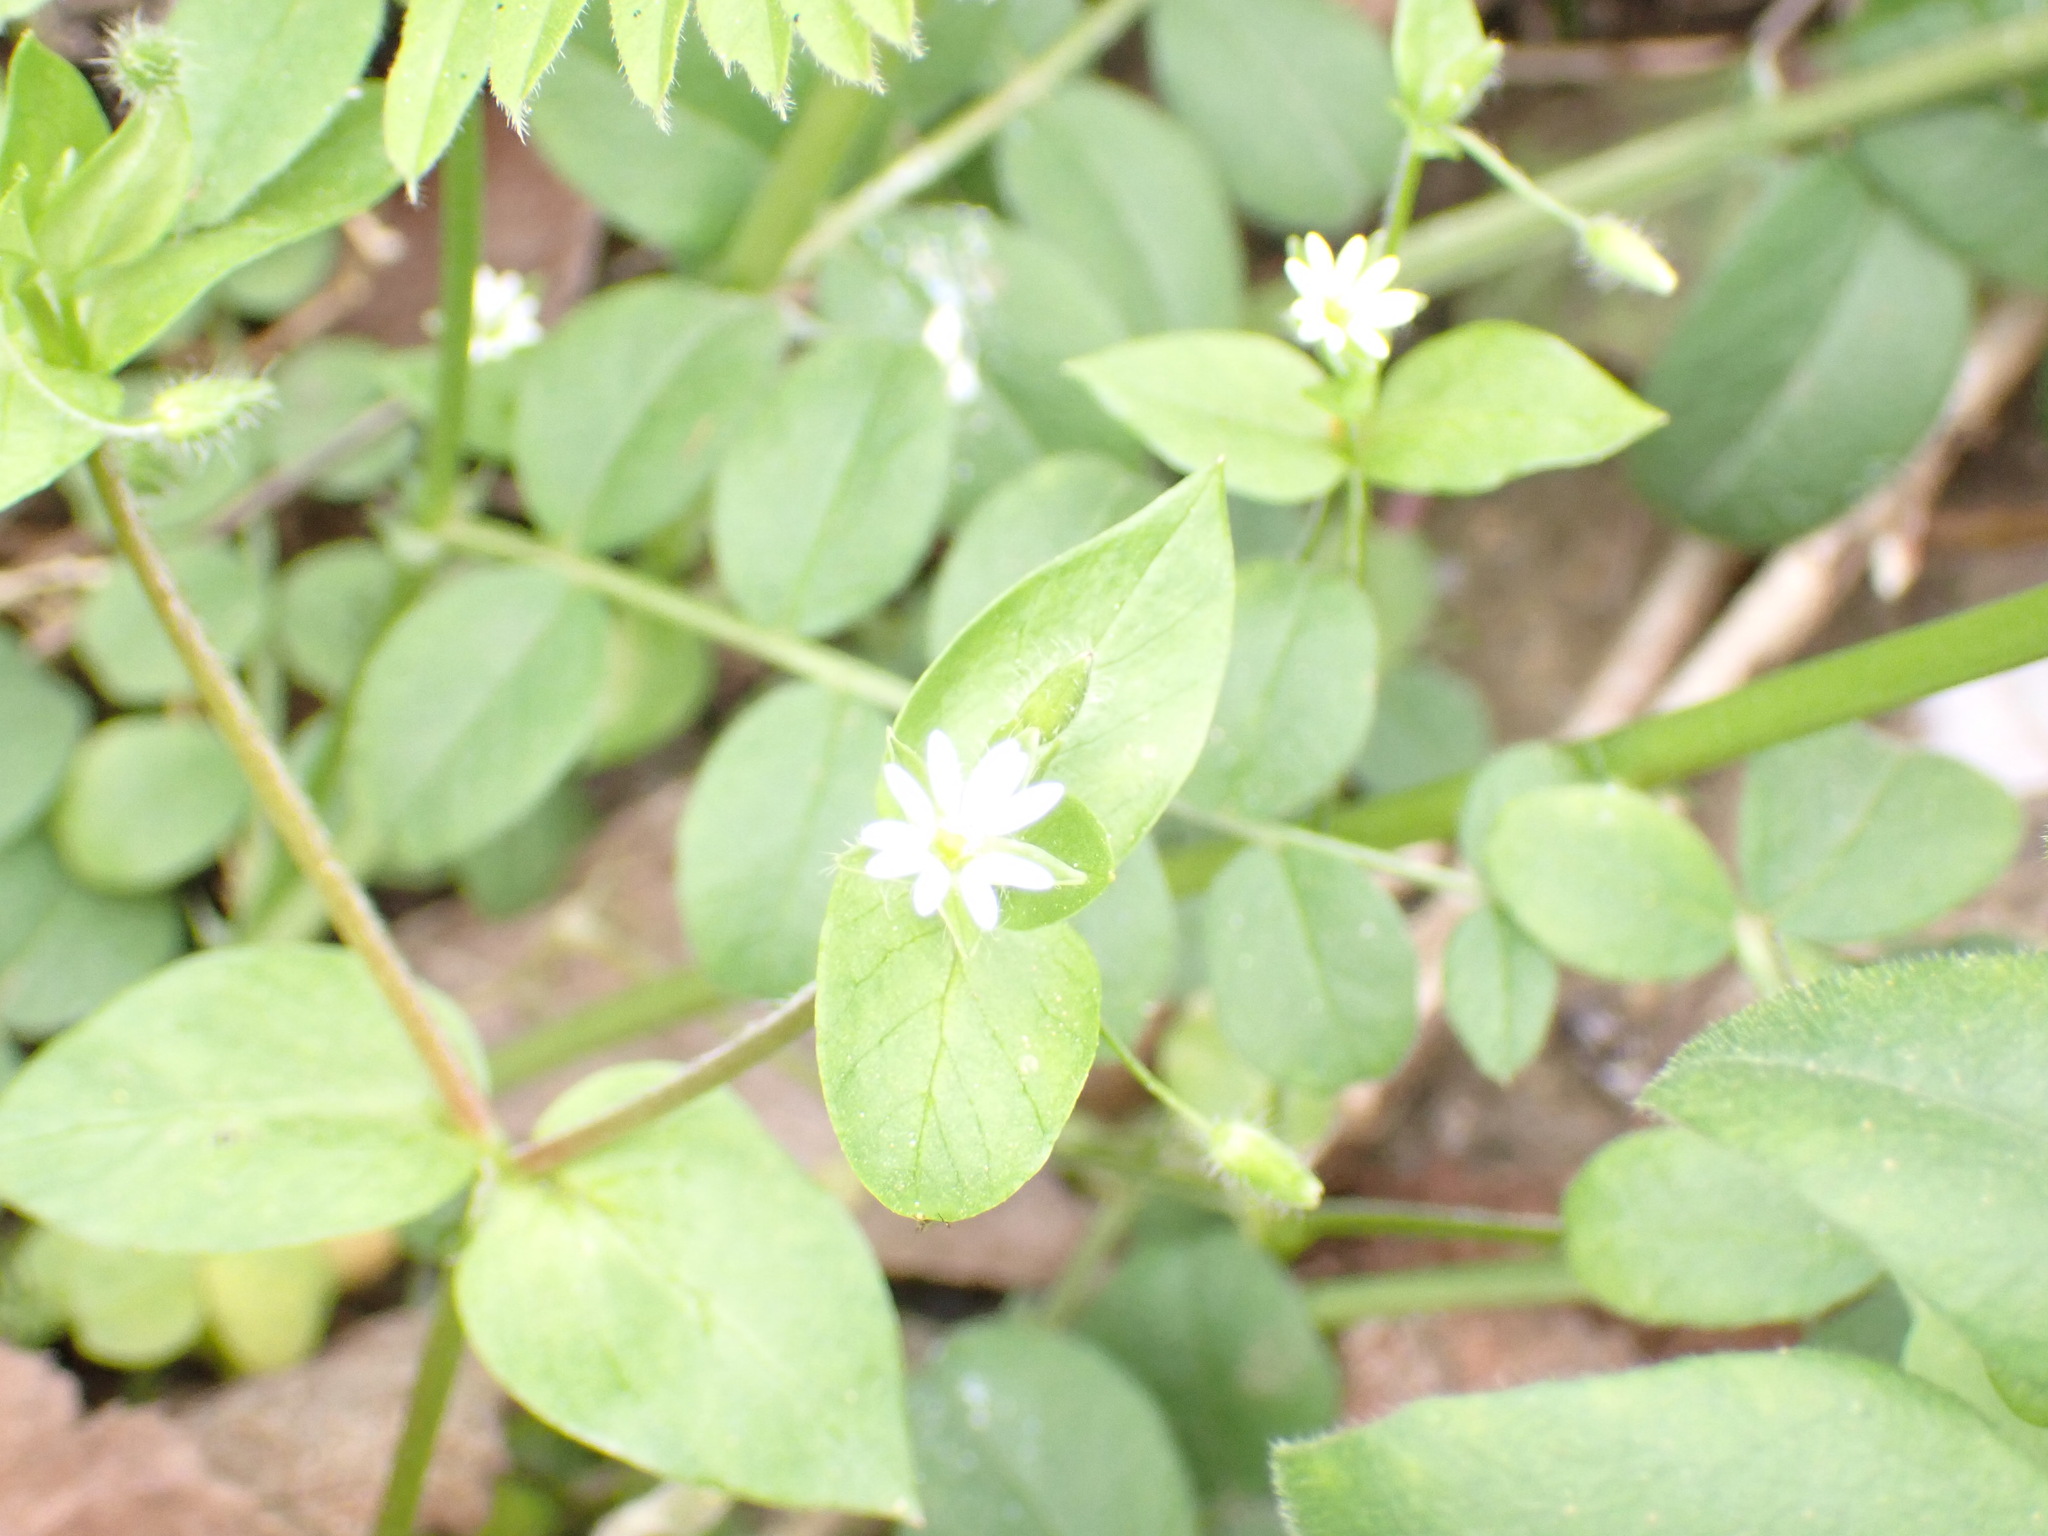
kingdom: Plantae
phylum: Tracheophyta
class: Magnoliopsida
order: Caryophyllales
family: Caryophyllaceae
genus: Stellaria
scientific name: Stellaria media
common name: Common chickweed
